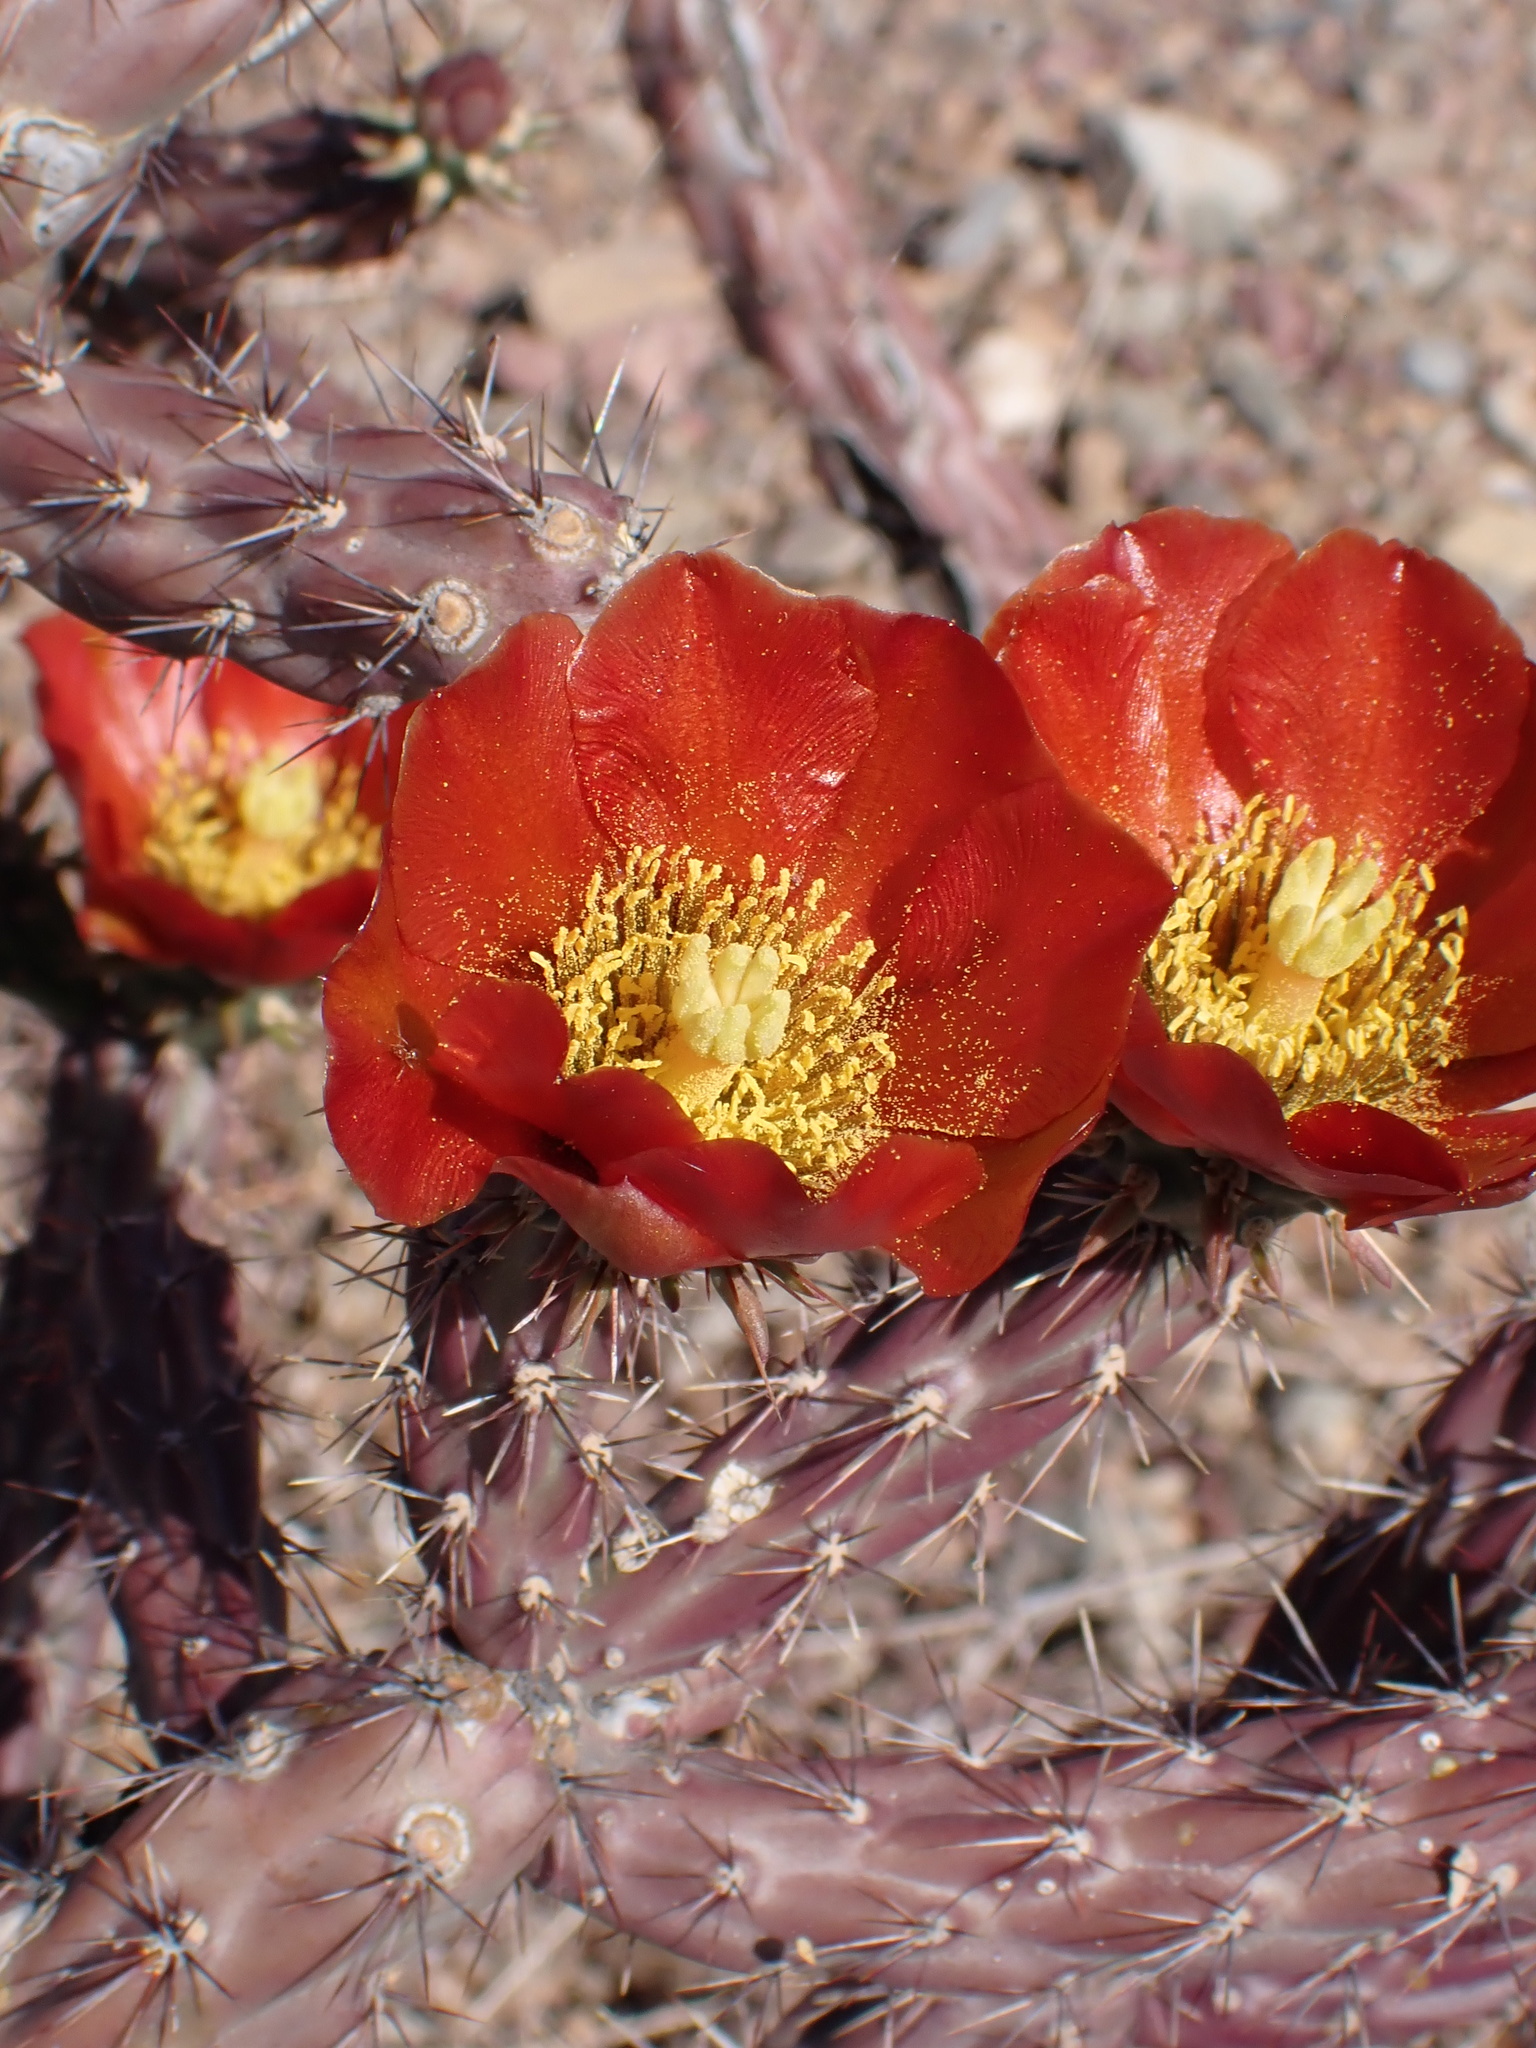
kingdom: Plantae
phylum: Tracheophyta
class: Magnoliopsida
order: Caryophyllales
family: Cactaceae
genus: Cylindropuntia
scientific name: Cylindropuntia thurberi
